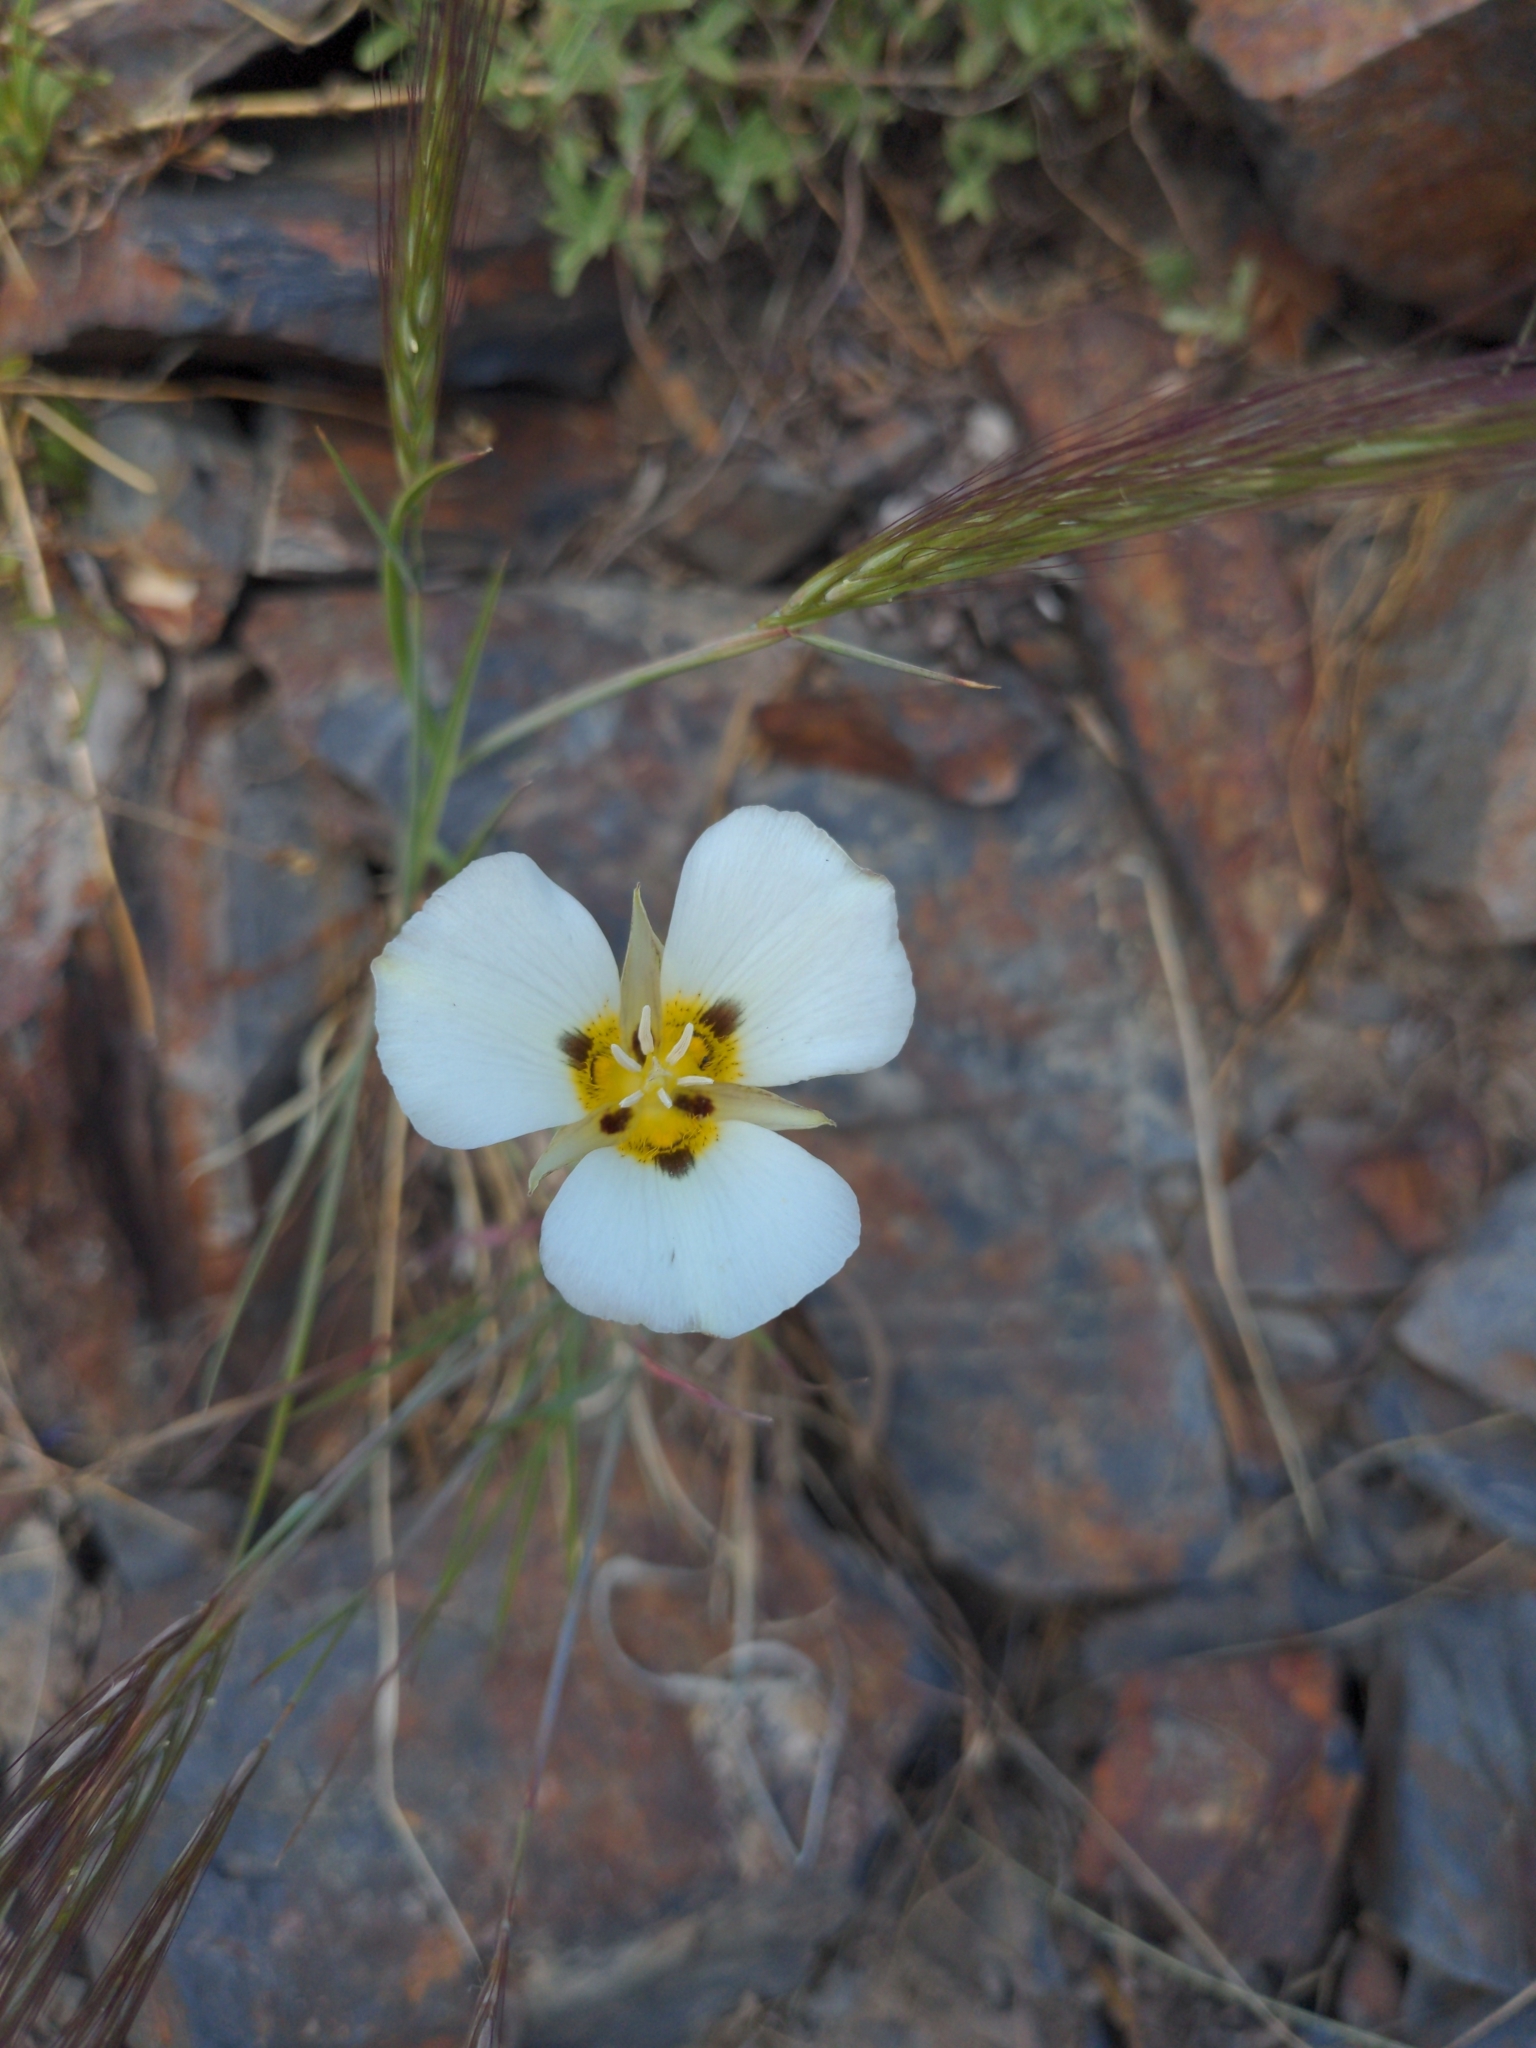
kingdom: Plantae
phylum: Tracheophyta
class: Liliopsida
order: Liliales
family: Liliaceae
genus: Calochortus
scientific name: Calochortus leichtlinii
